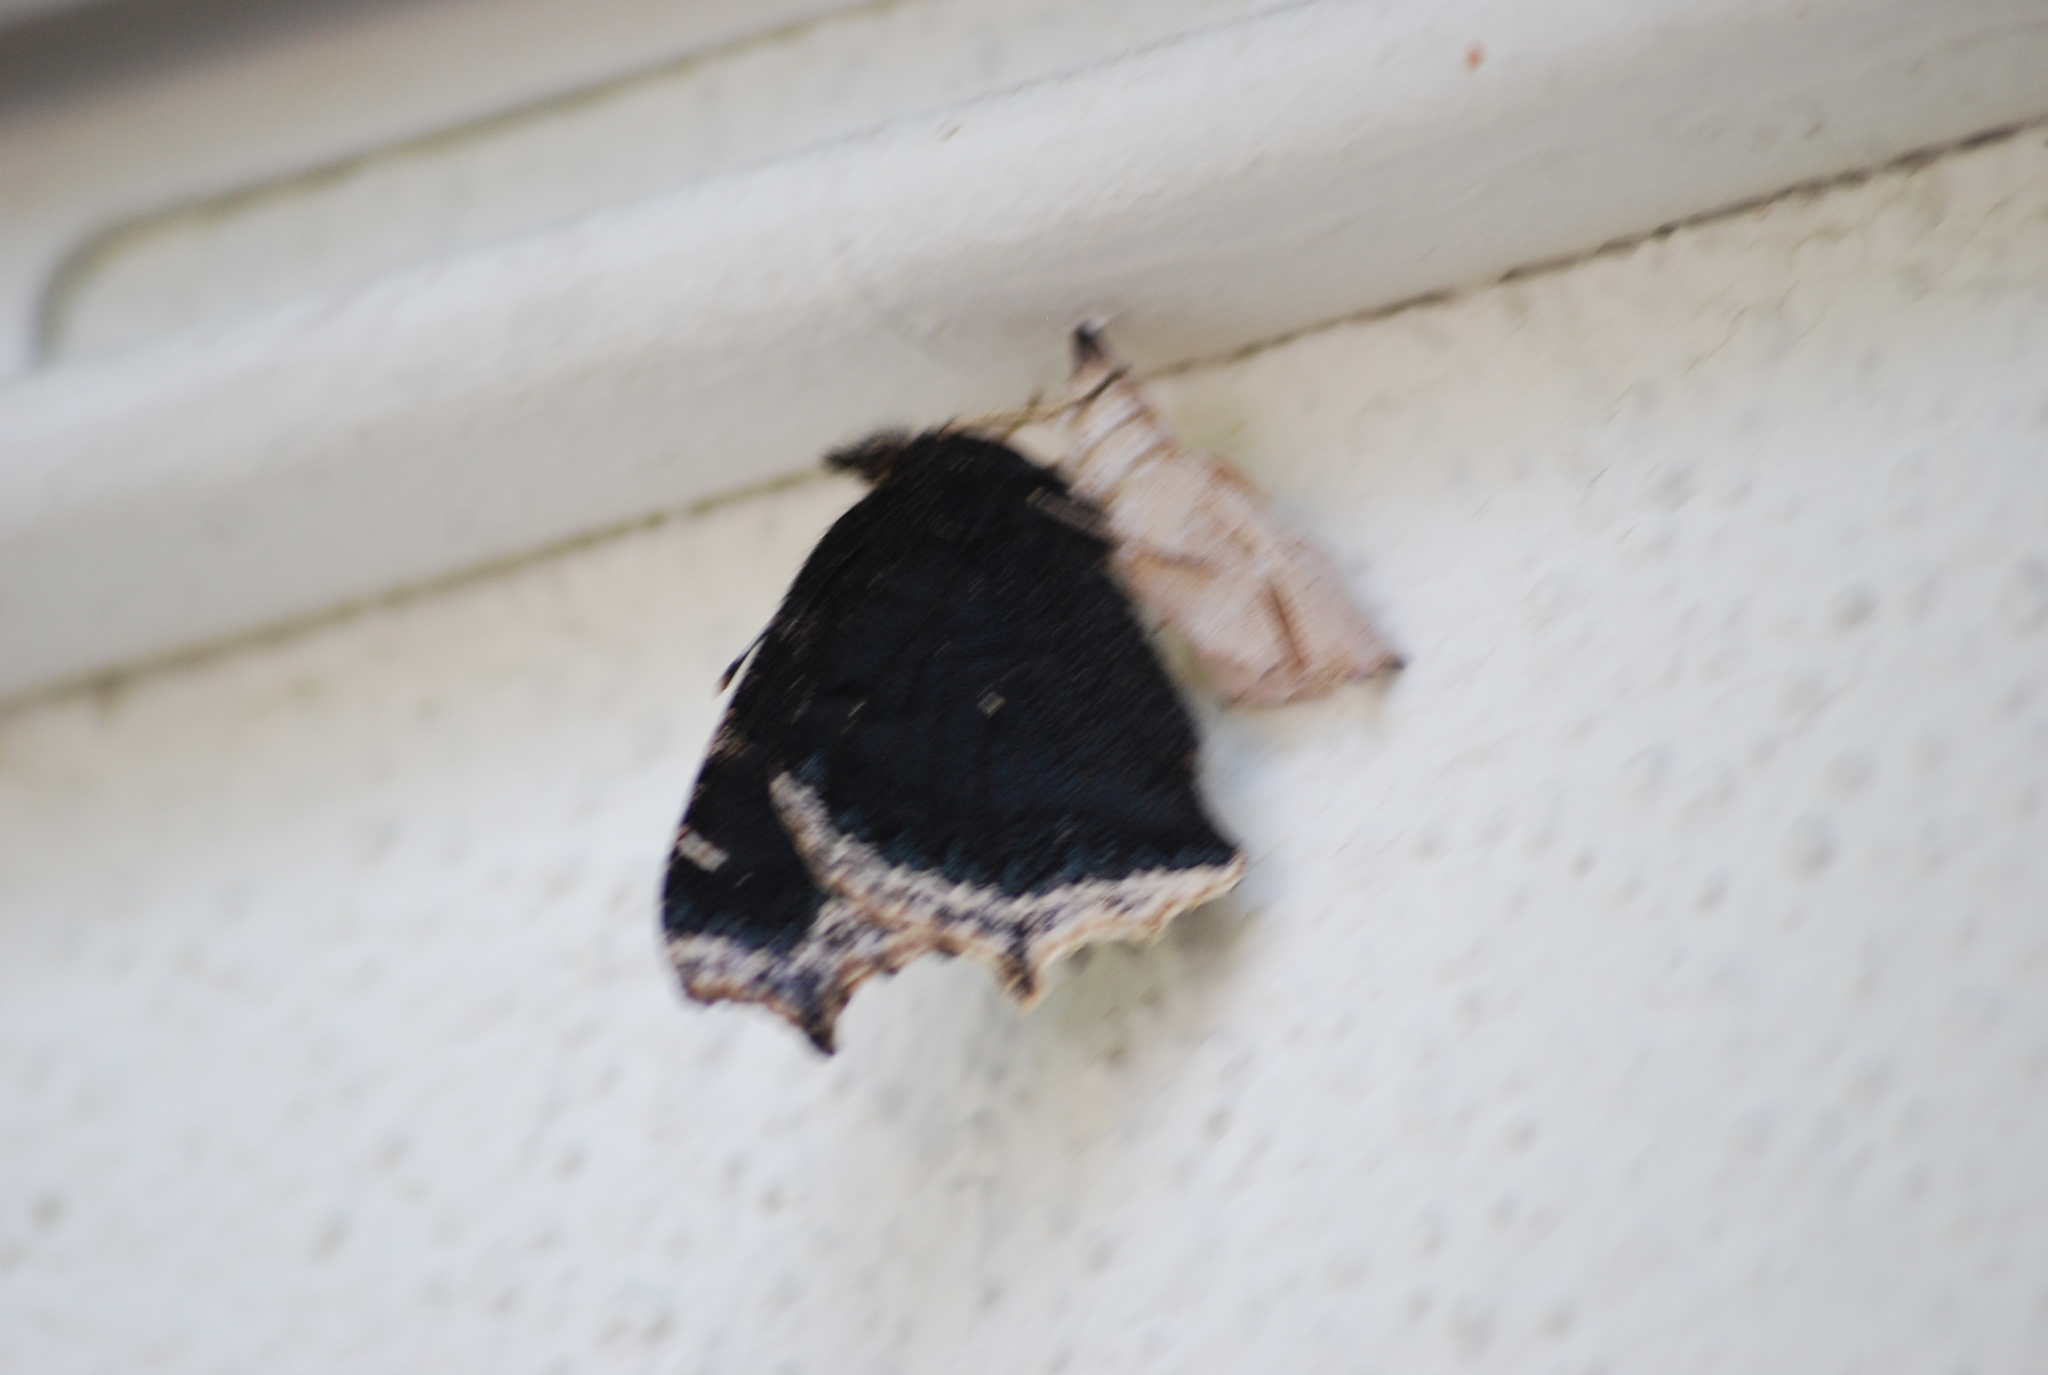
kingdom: Animalia
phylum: Arthropoda
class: Insecta
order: Lepidoptera
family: Nymphalidae
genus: Nymphalis
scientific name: Nymphalis antiopa
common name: Camberwell beauty
